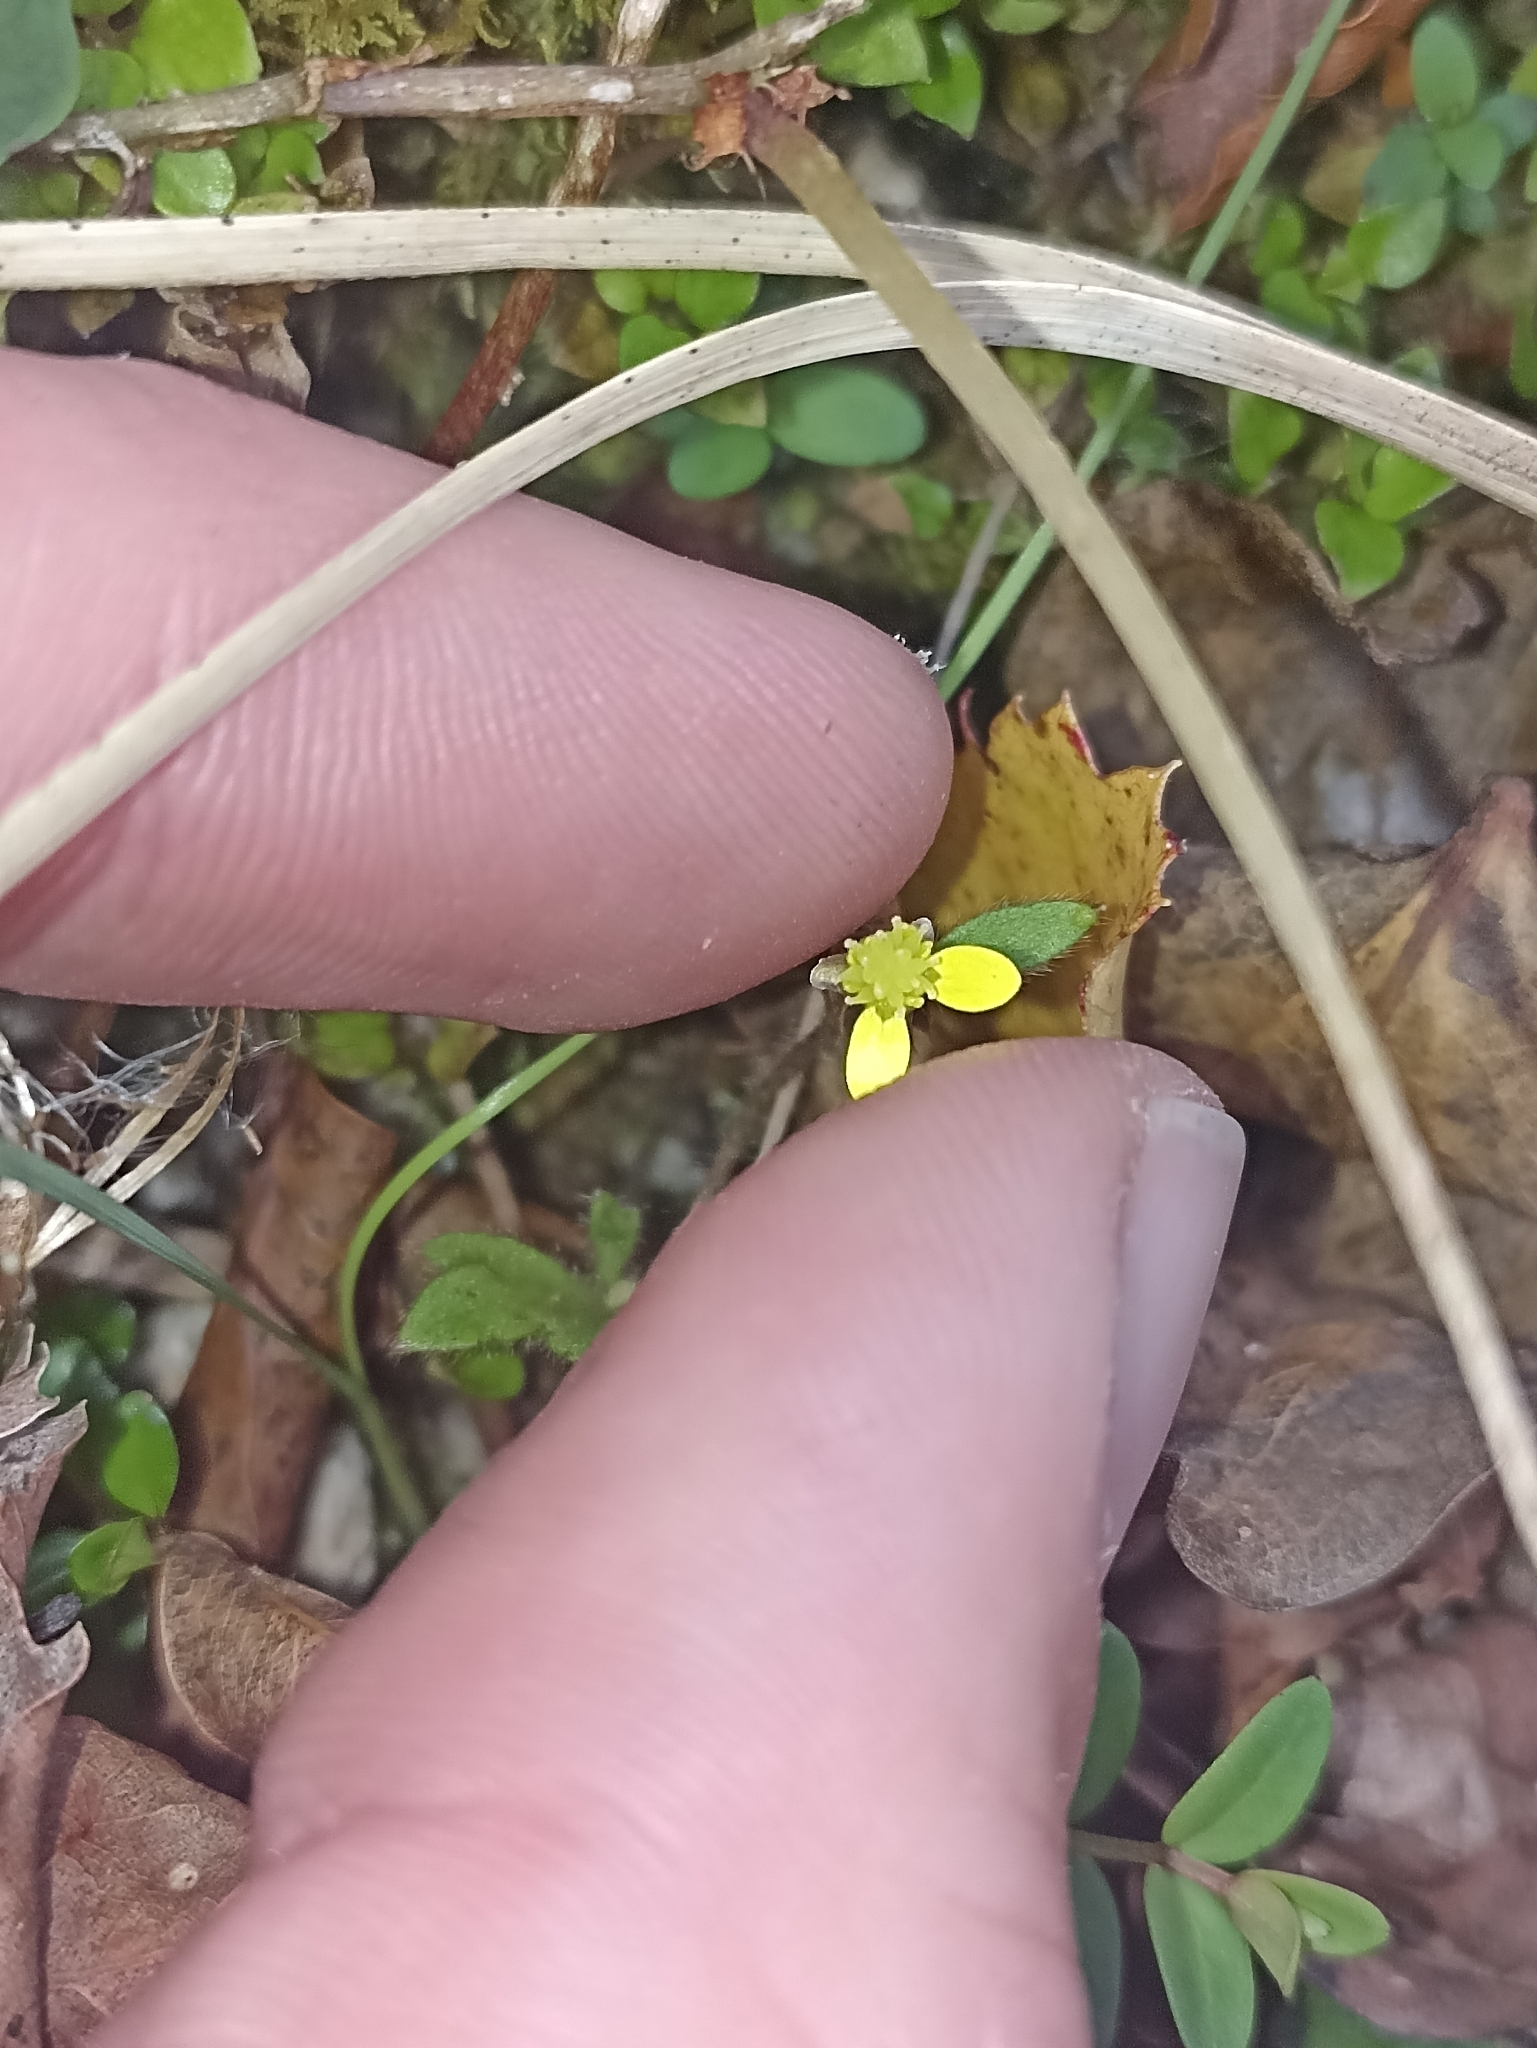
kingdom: Plantae
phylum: Tracheophyta
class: Magnoliopsida
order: Ranunculales
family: Ranunculaceae
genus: Ranunculus
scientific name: Ranunculus reflexus
